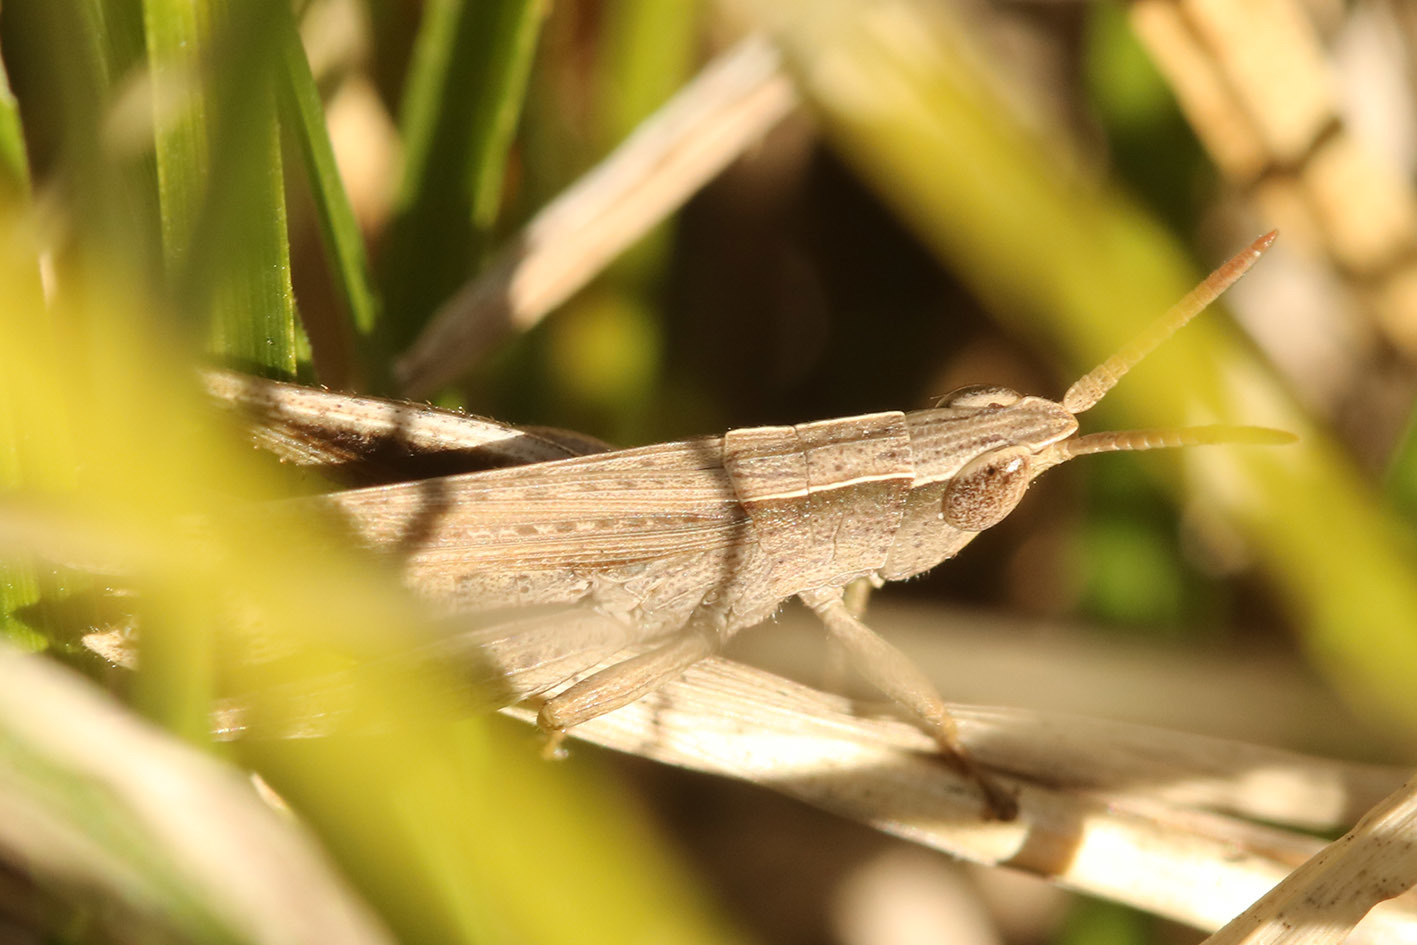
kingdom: Animalia
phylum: Arthropoda
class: Insecta
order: Orthoptera
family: Acrididae
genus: Laplatacris
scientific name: Laplatacris dispar
